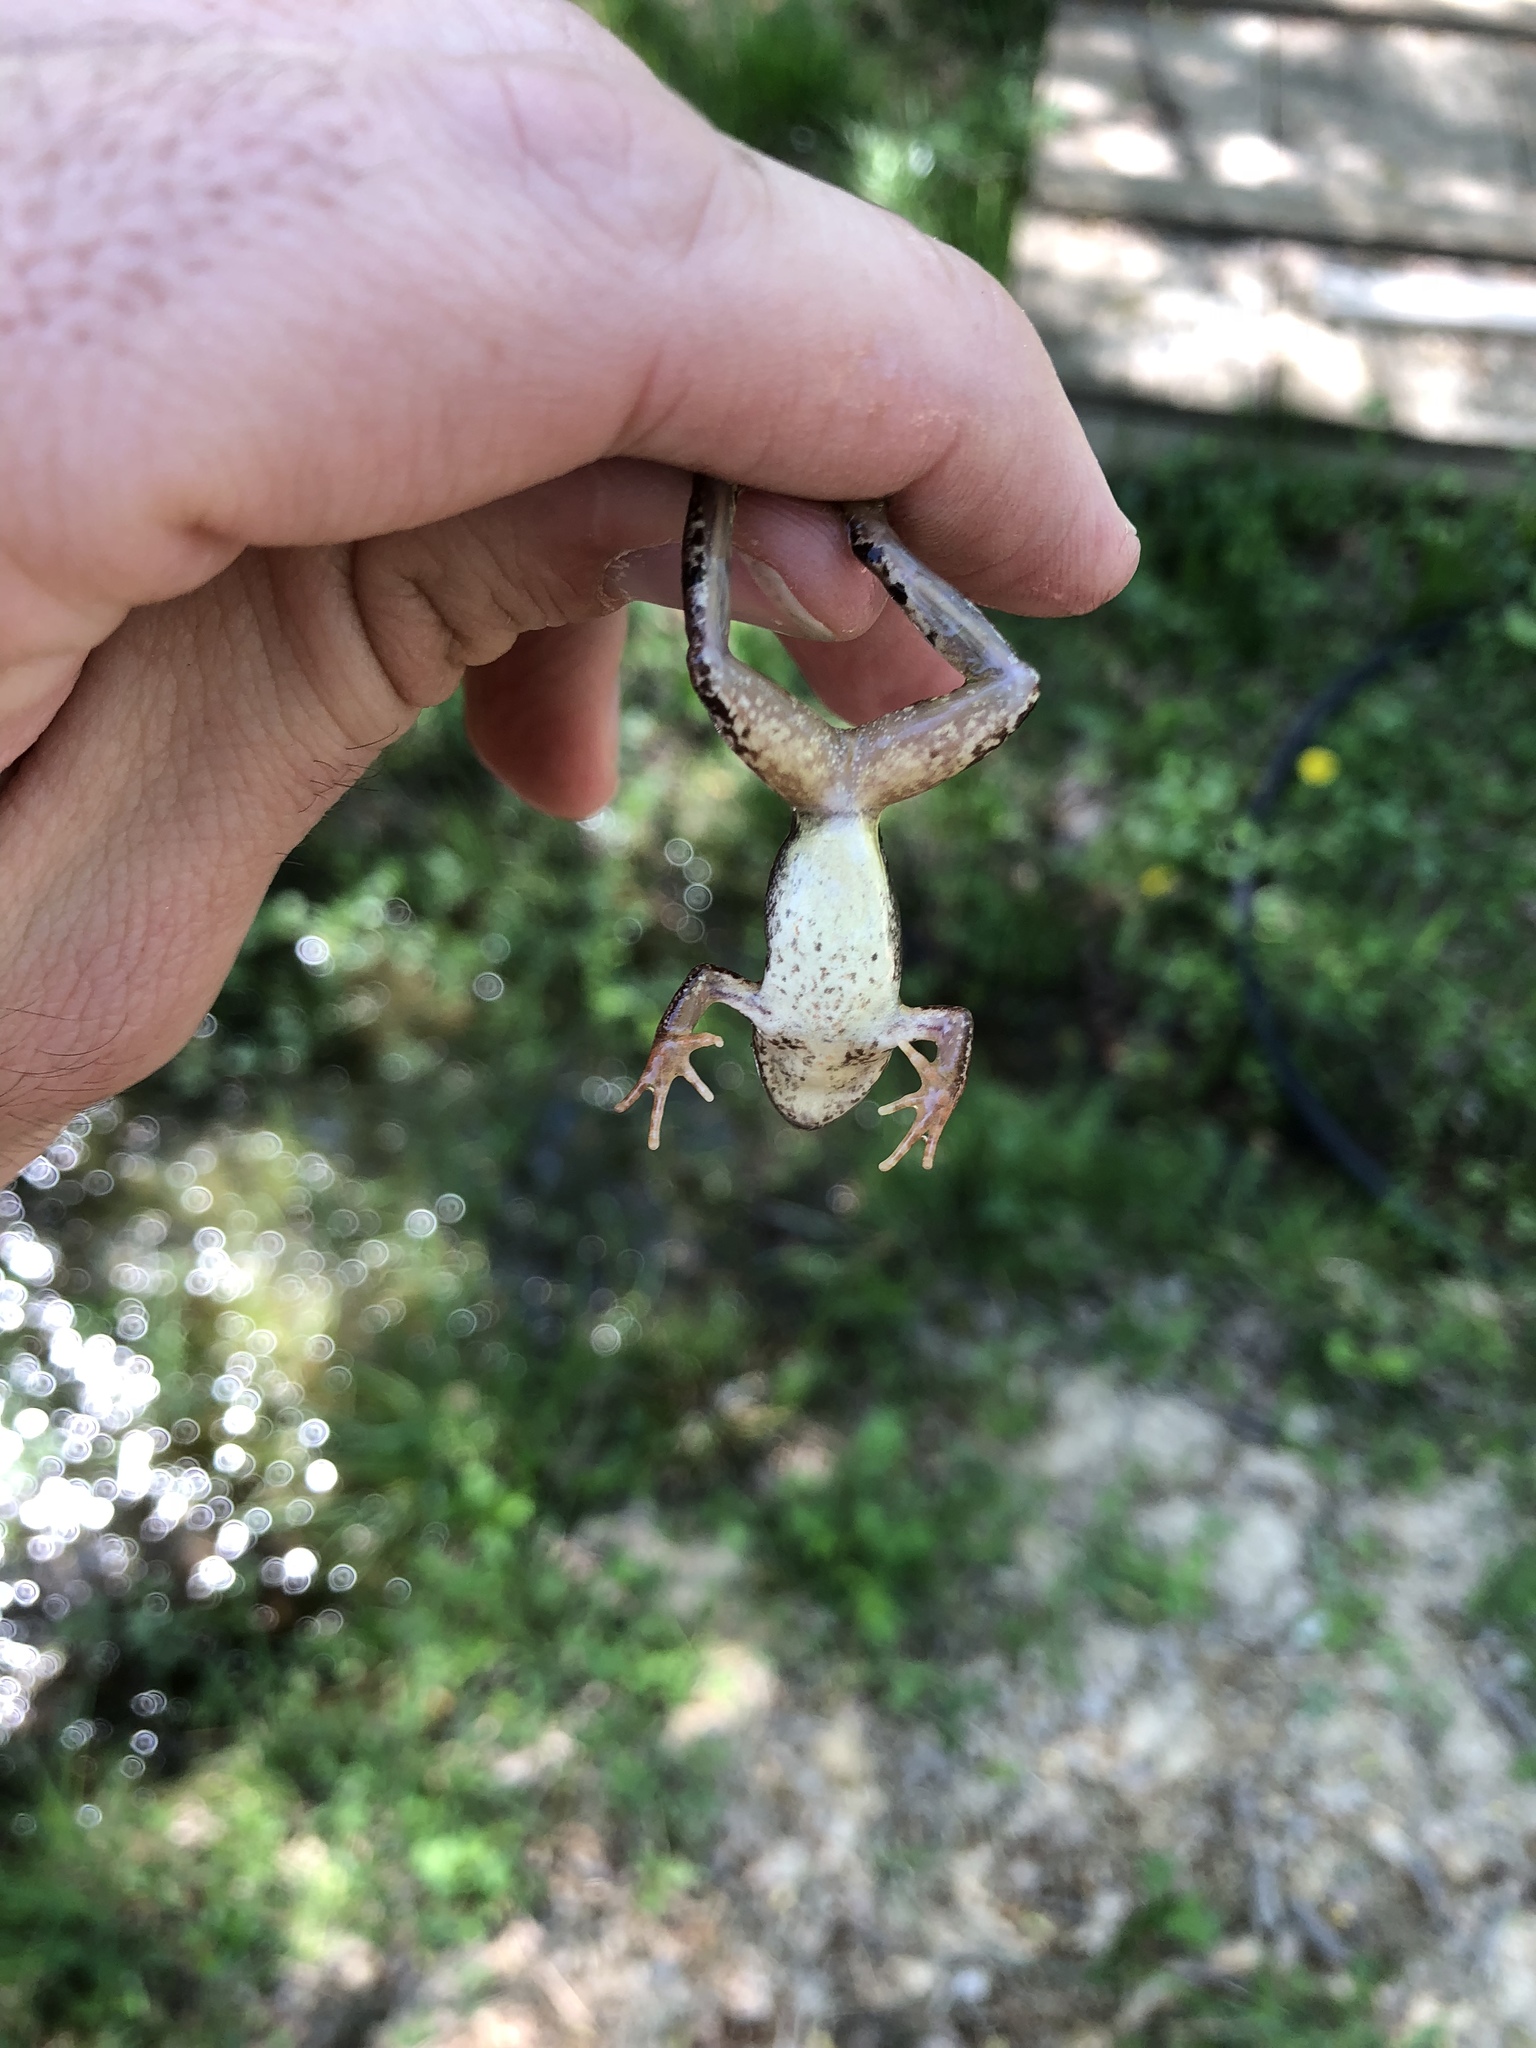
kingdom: Animalia
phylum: Chordata
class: Amphibia
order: Anura
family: Ranidae
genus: Rana
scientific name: Rana dalmatina
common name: Agile frog
